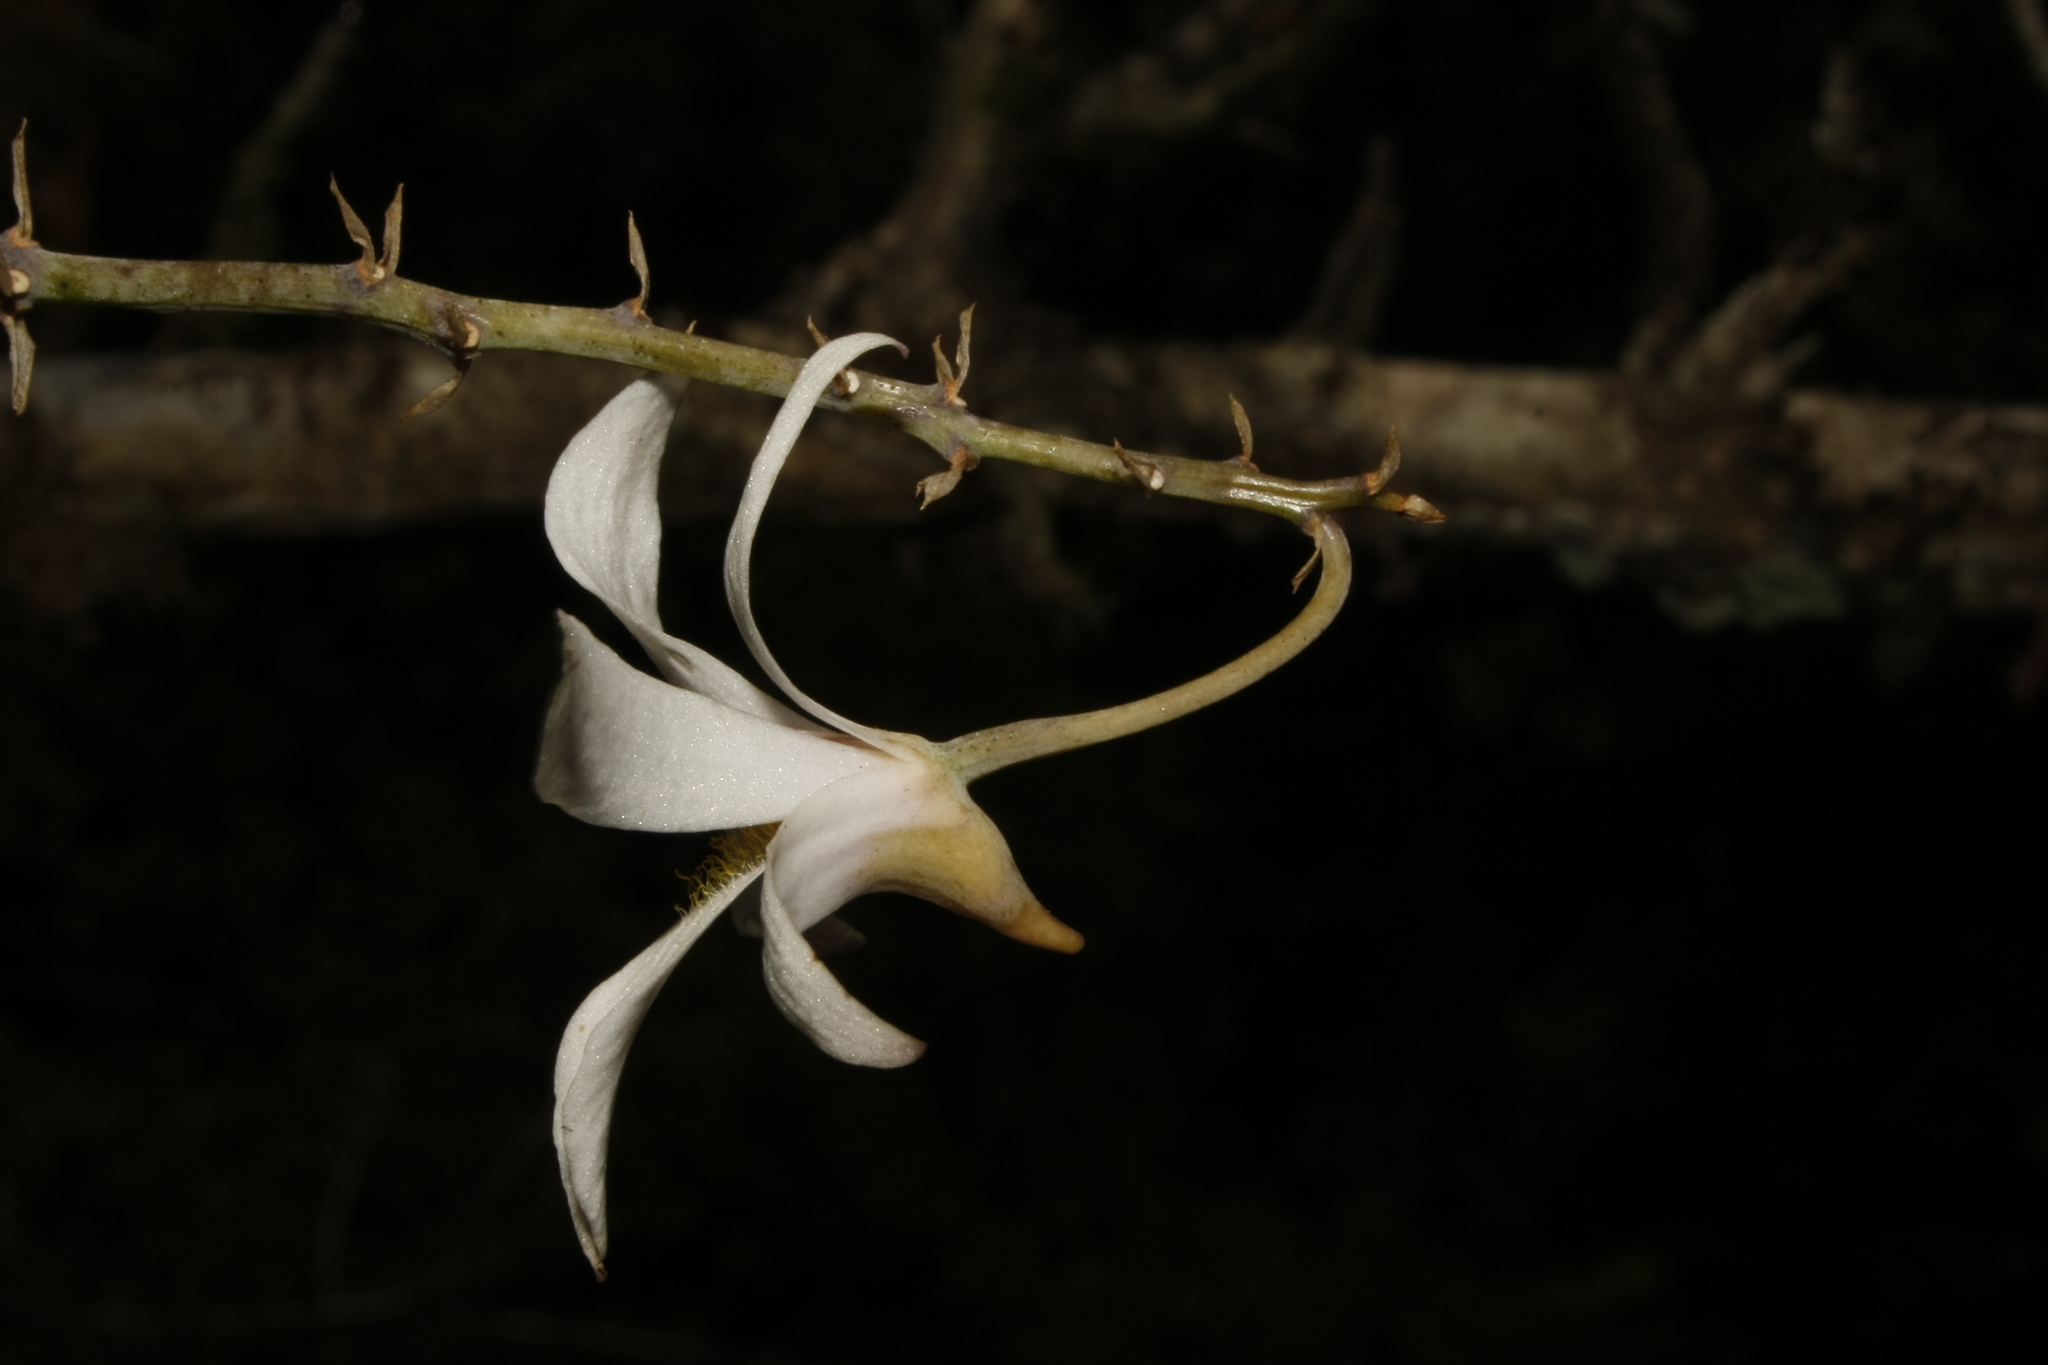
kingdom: Plantae
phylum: Tracheophyta
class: Liliopsida
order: Asparagales
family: Orchidaceae
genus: Dendrobium
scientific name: Dendrobium barbatulum
